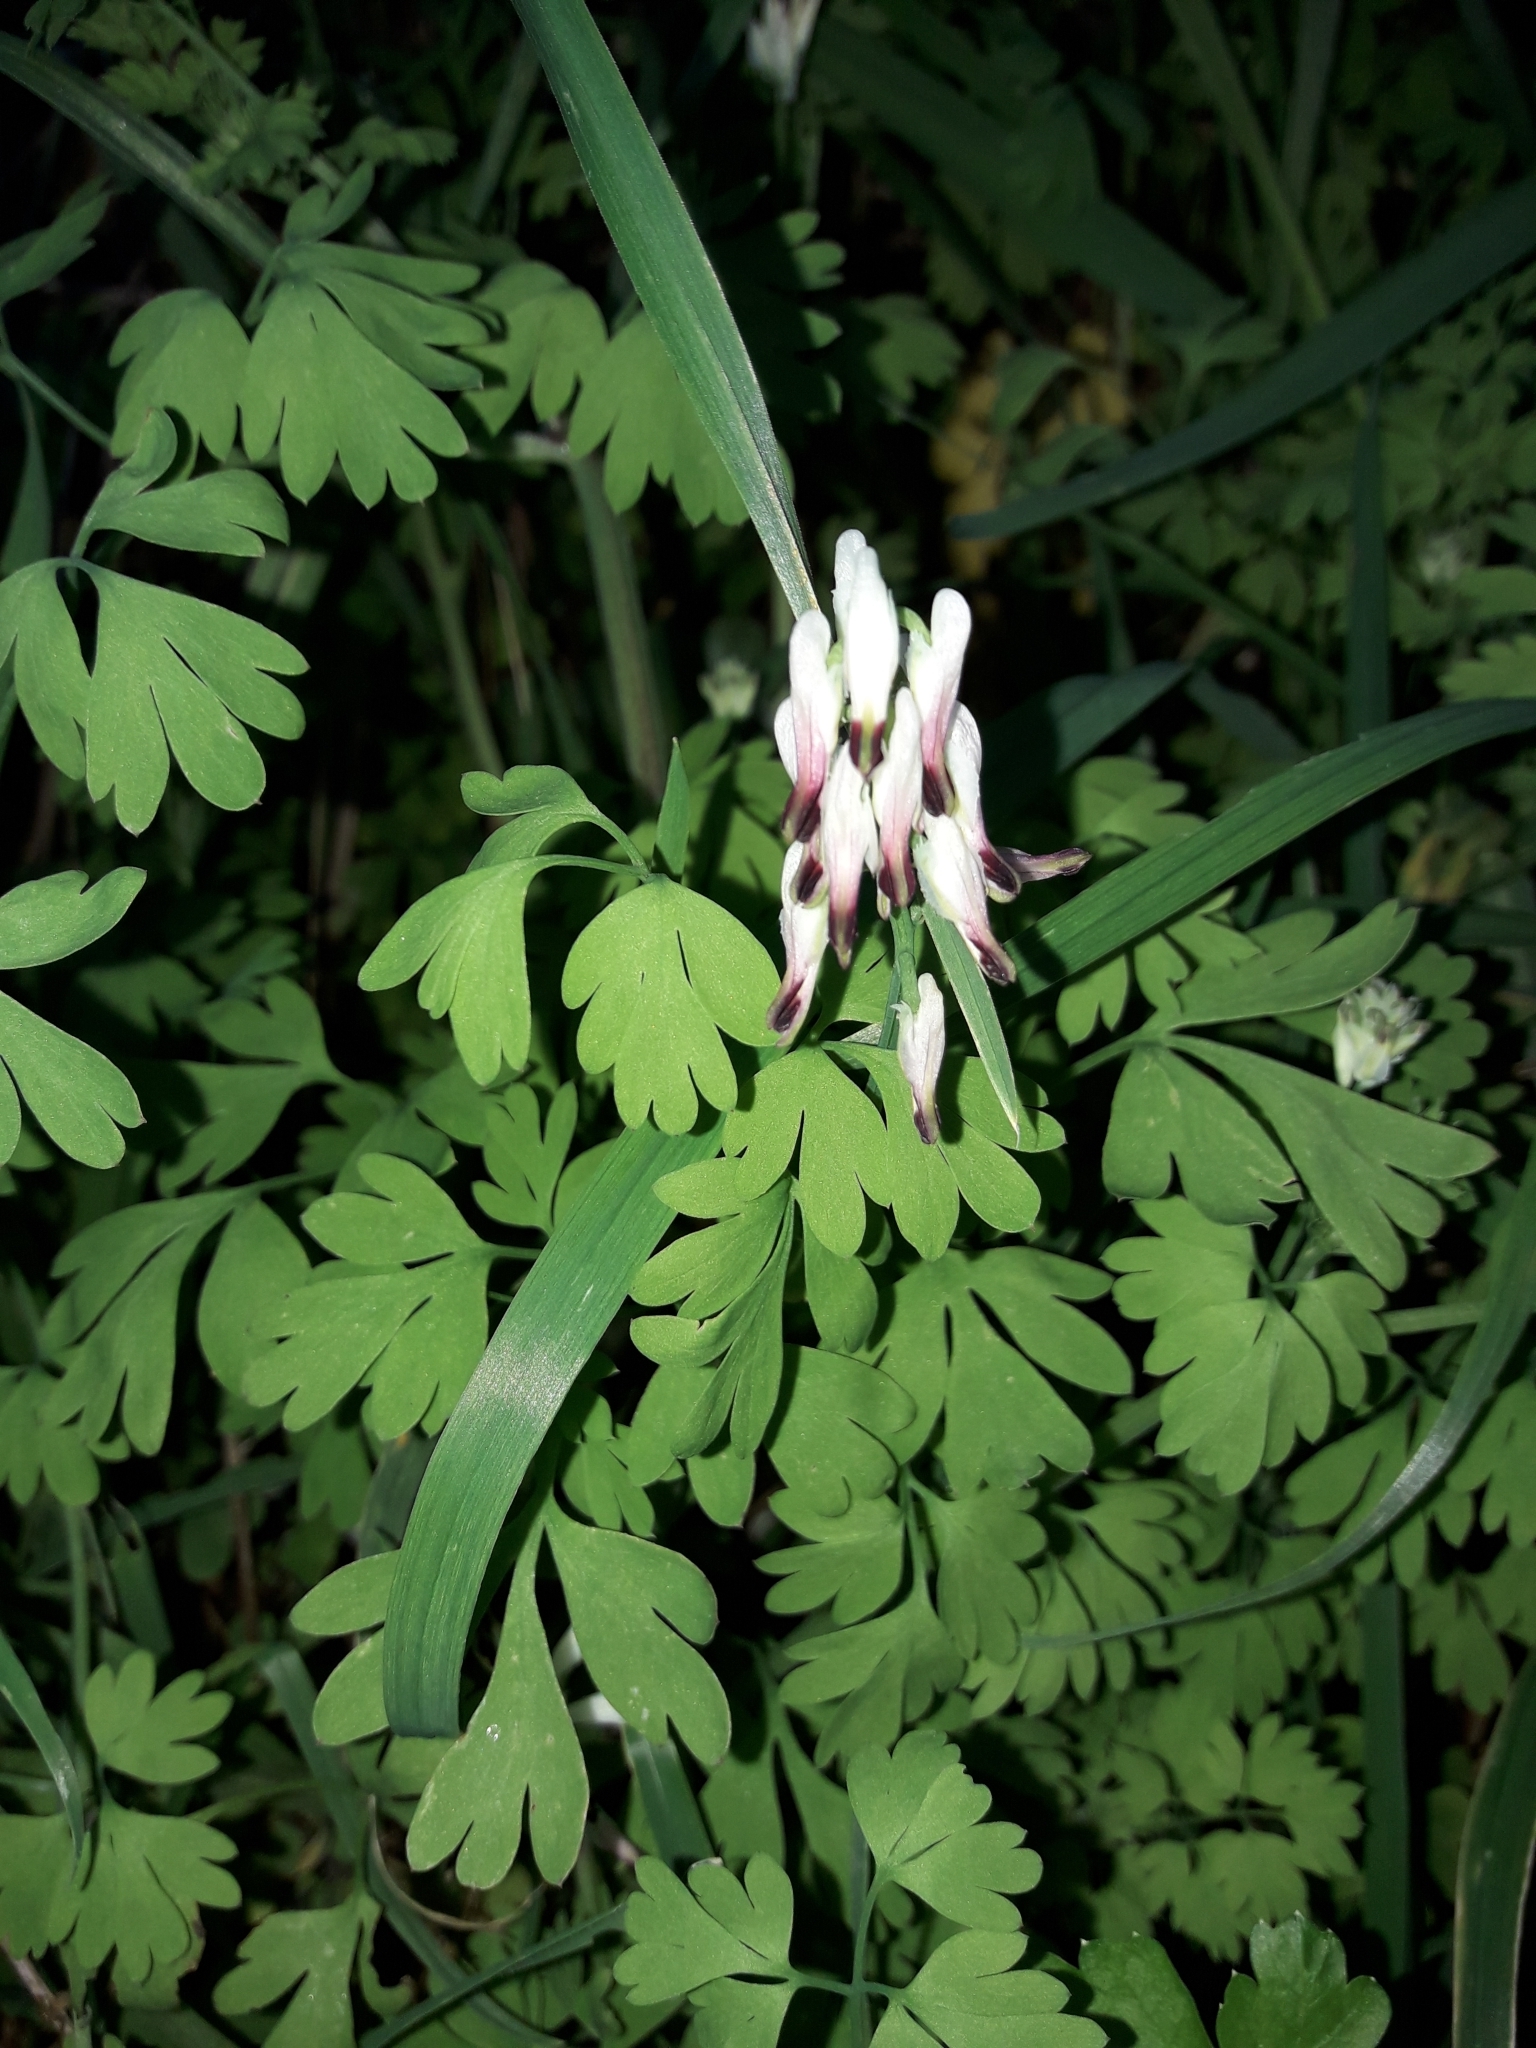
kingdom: Plantae
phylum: Tracheophyta
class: Magnoliopsida
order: Ranunculales
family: Papaveraceae
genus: Fumaria
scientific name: Fumaria capreolata
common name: White ramping-fumitory
